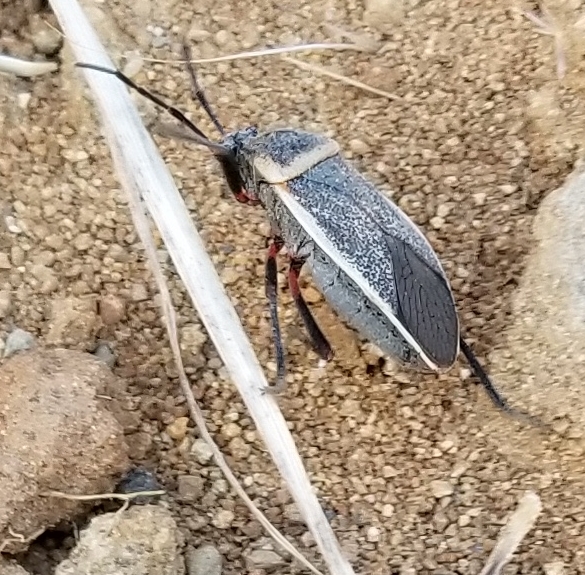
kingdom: Animalia
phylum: Arthropoda
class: Insecta
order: Hemiptera
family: Largidae
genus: Largus
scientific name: Largus californicus
